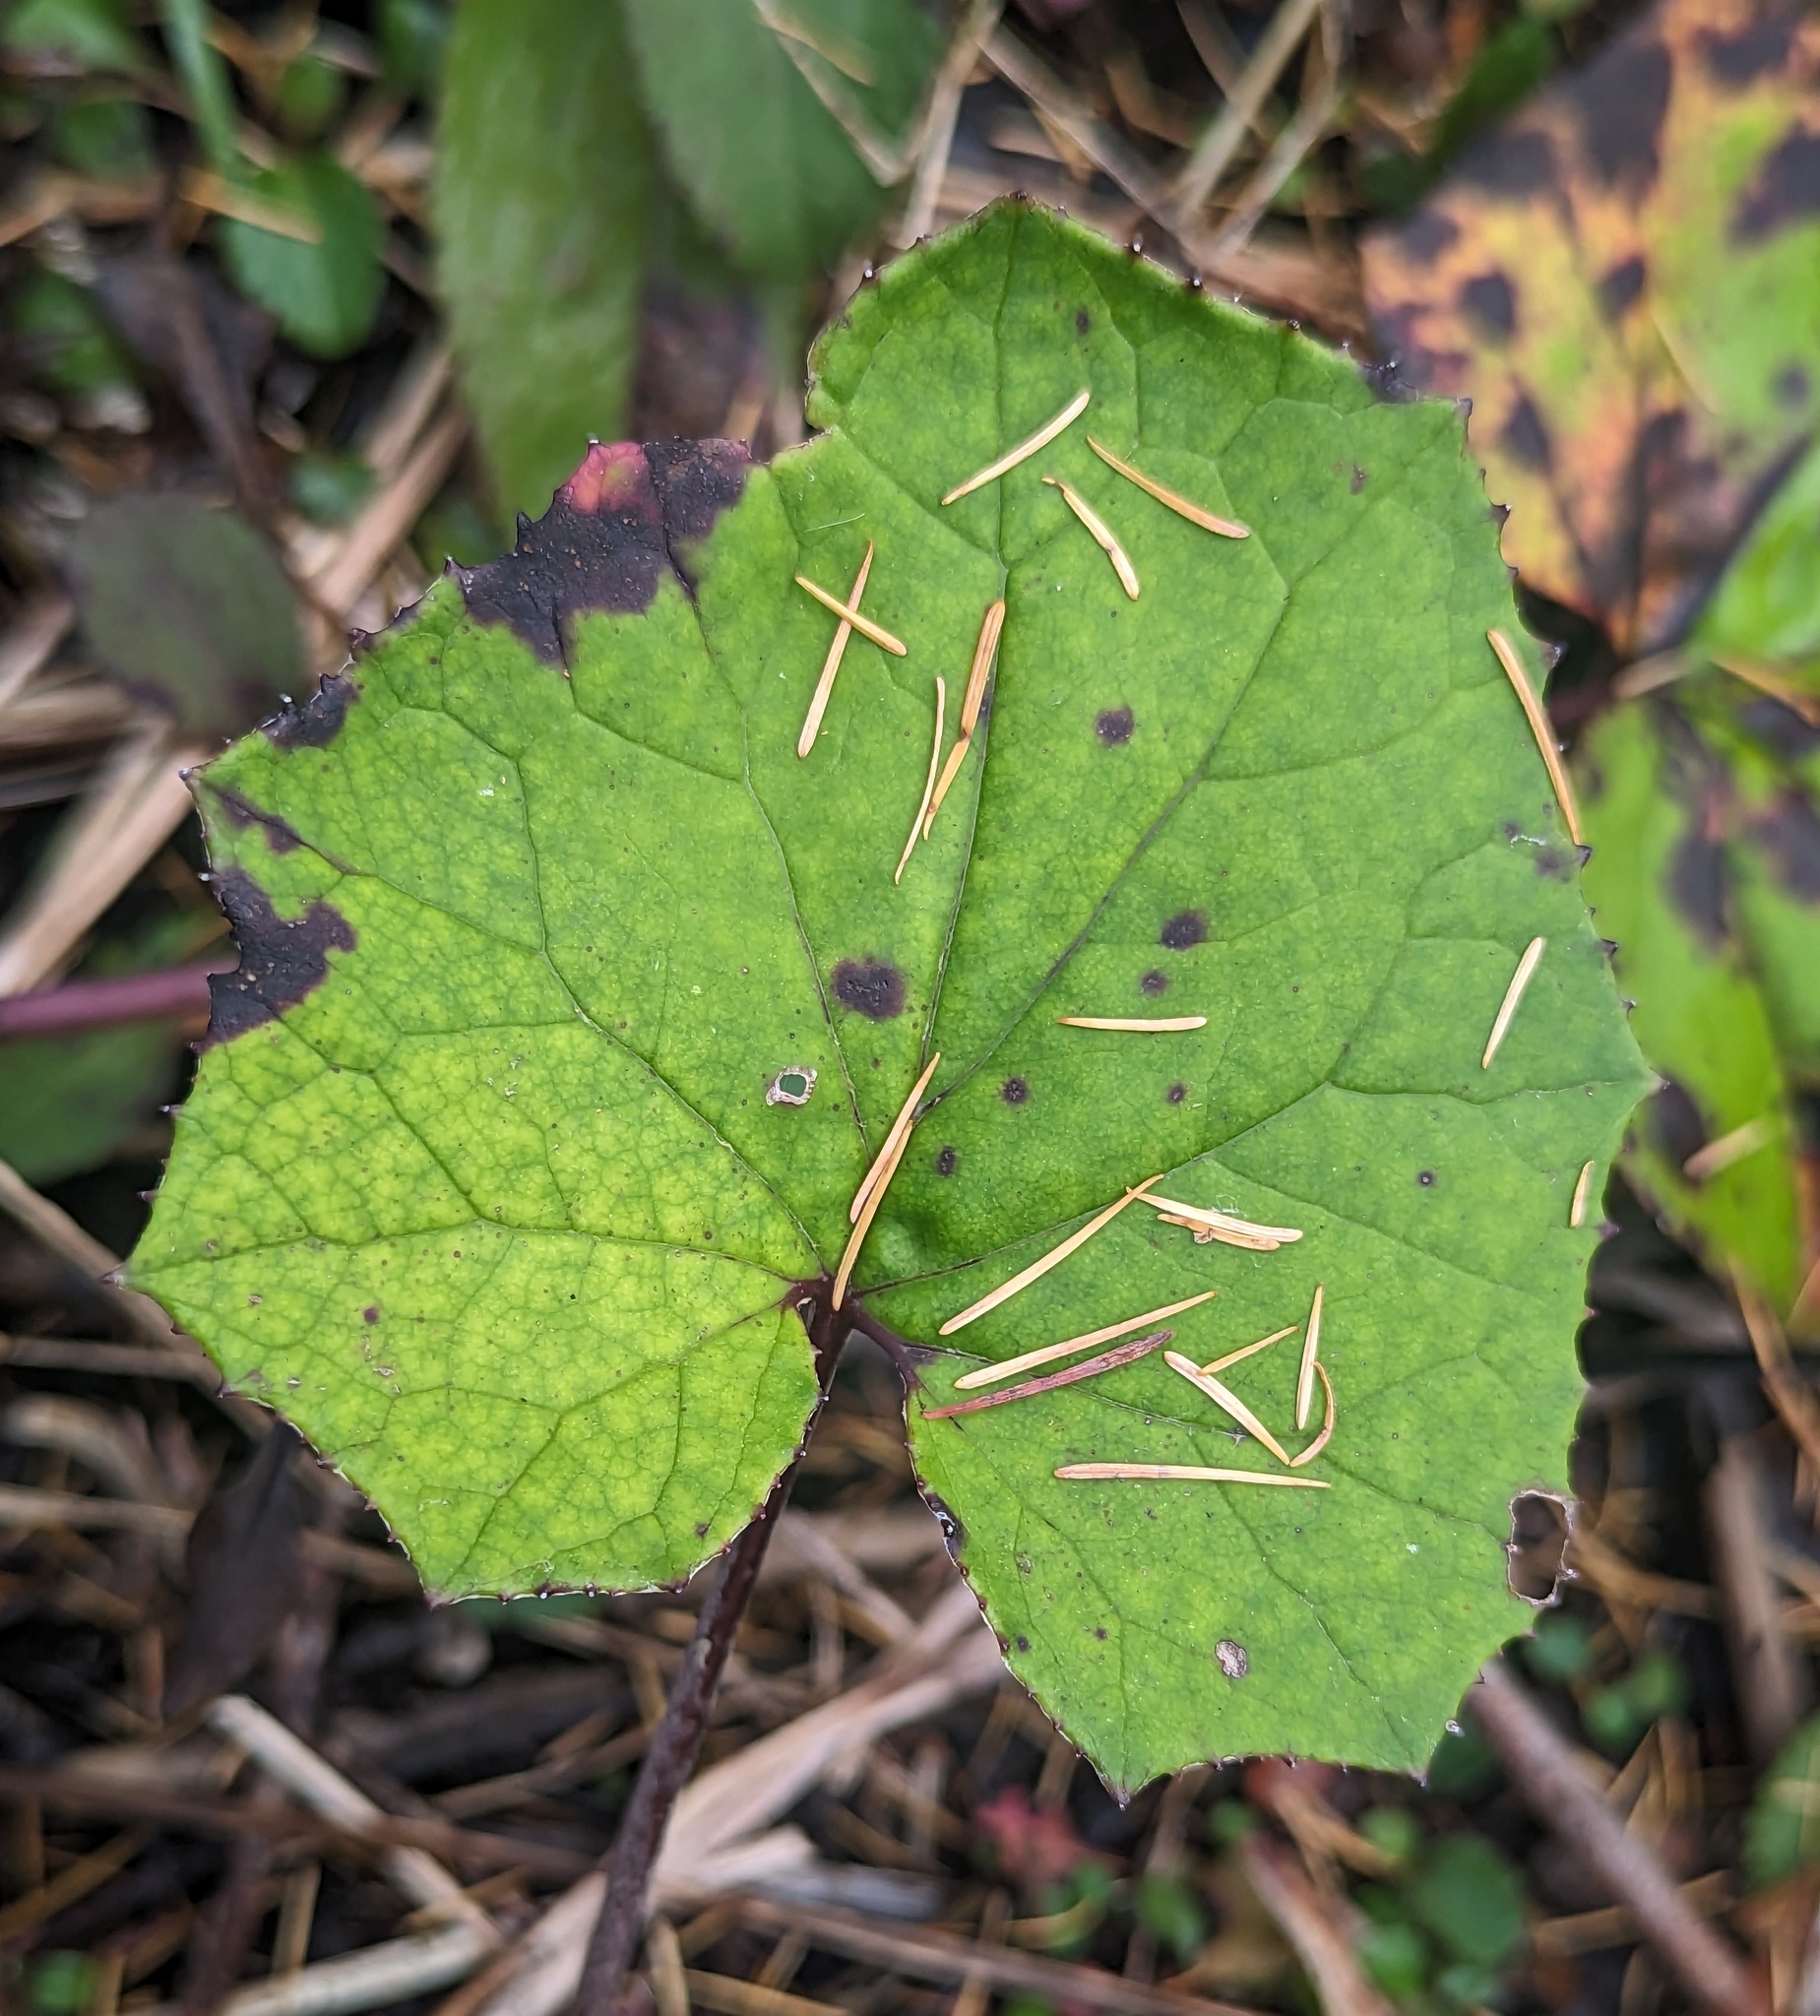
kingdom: Plantae
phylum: Tracheophyta
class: Magnoliopsida
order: Asterales
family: Asteraceae
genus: Tussilago
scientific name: Tussilago farfara
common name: Coltsfoot
